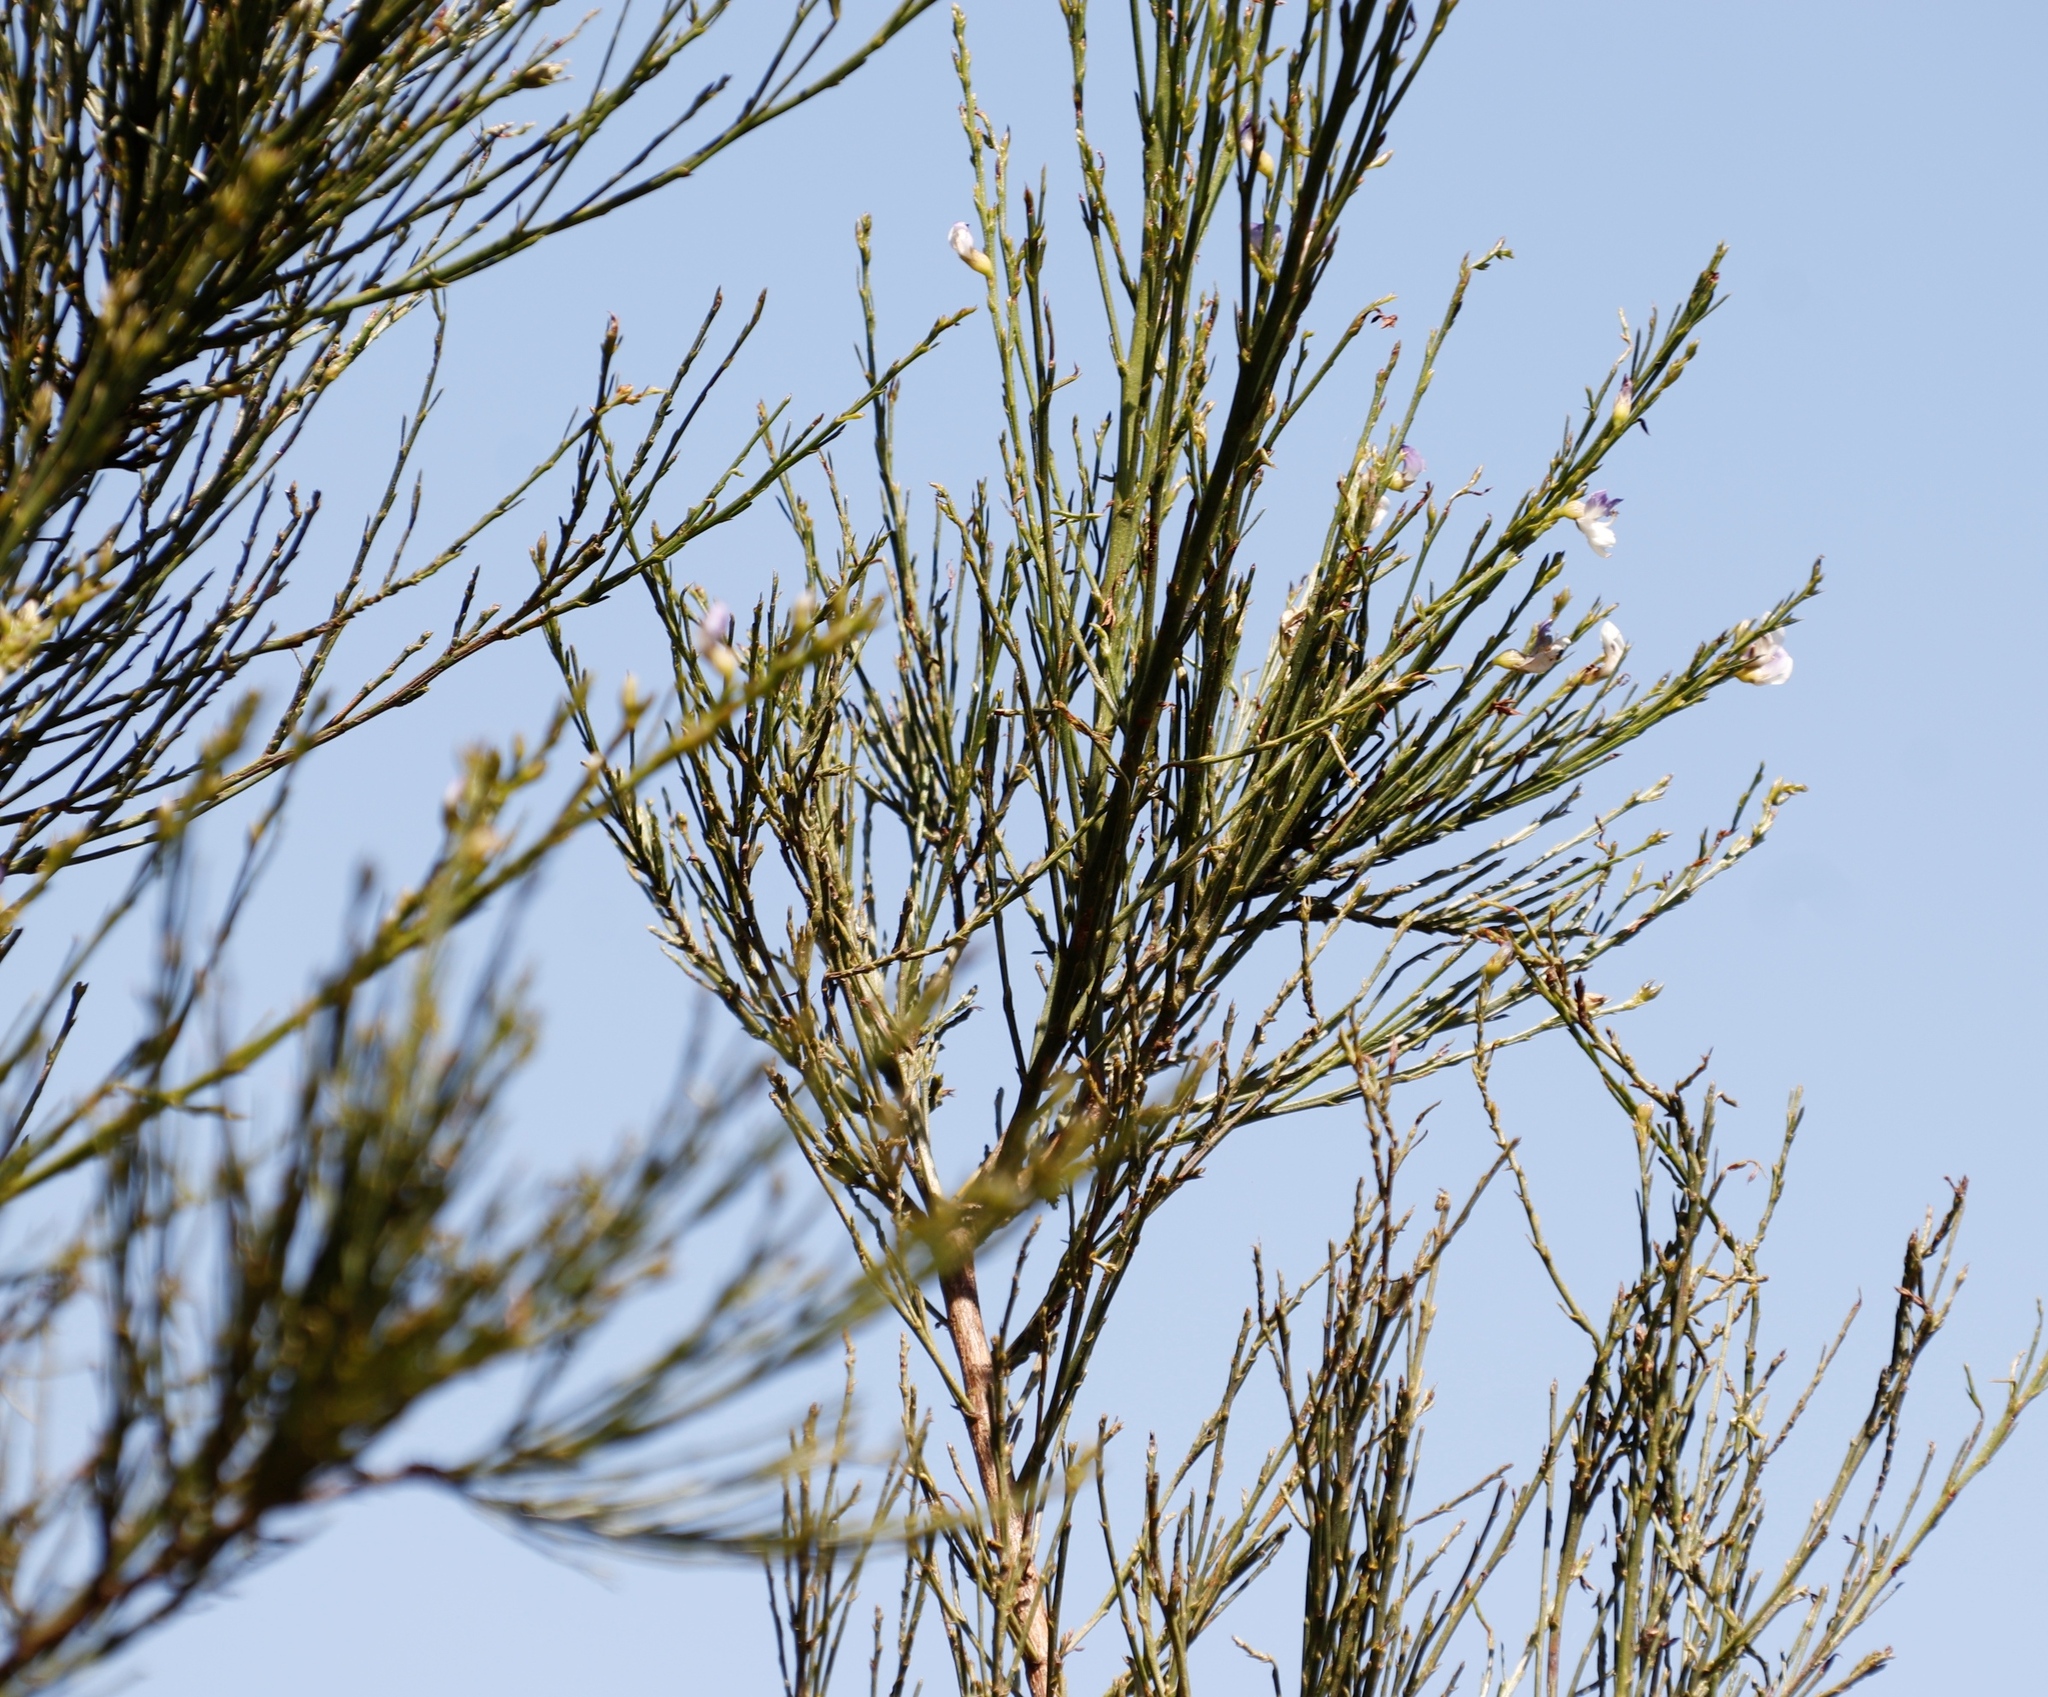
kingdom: Plantae
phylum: Tracheophyta
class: Magnoliopsida
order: Fabales
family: Fabaceae
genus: Psoralea
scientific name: Psoralea usitata
